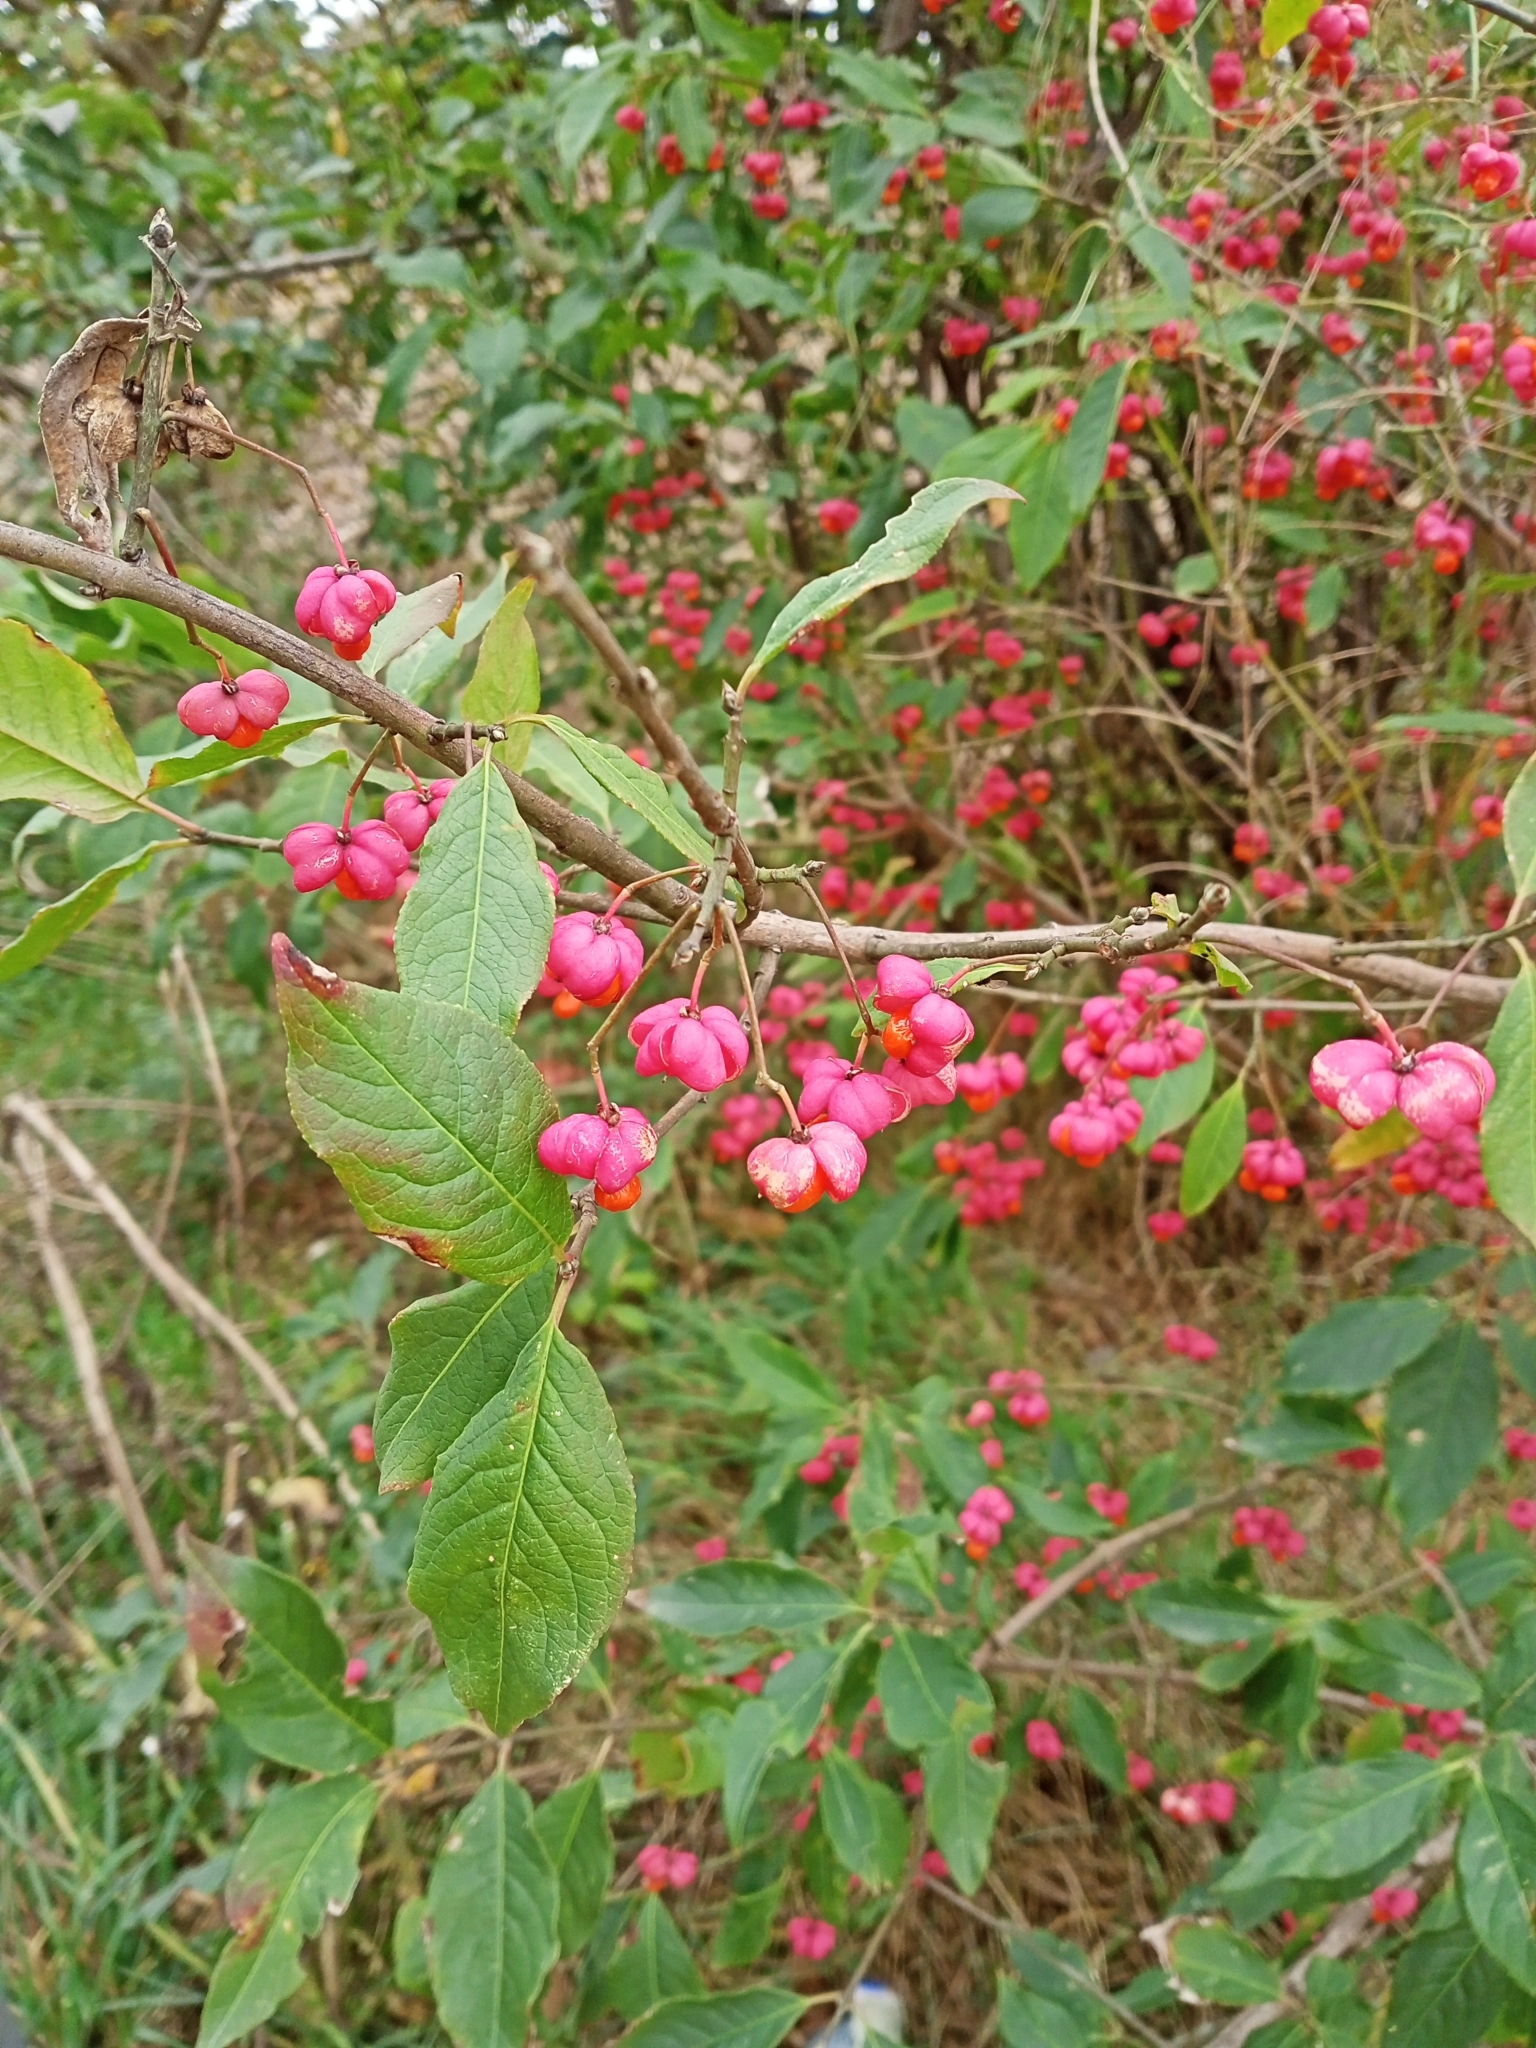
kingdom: Plantae
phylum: Tracheophyta
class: Magnoliopsida
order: Celastrales
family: Celastraceae
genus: Euonymus
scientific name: Euonymus europaeus
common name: Spindle
